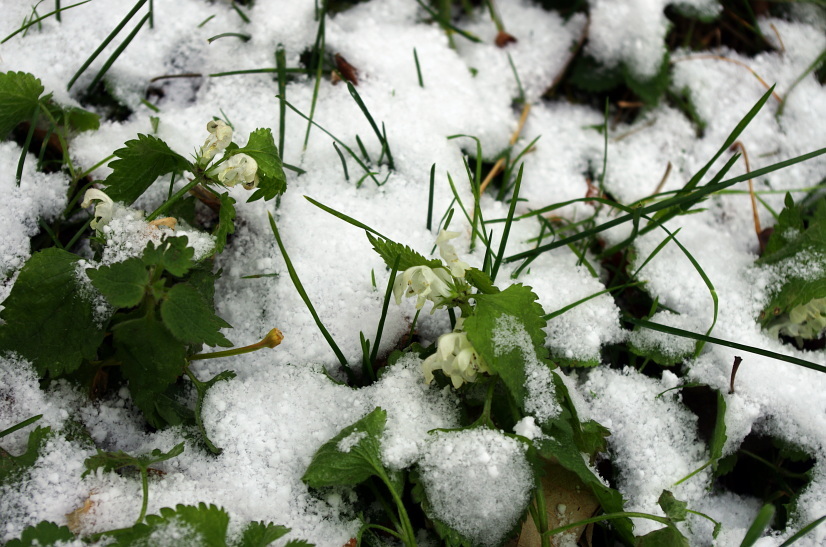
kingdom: Plantae
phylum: Tracheophyta
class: Magnoliopsida
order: Lamiales
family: Lamiaceae
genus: Lamium
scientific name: Lamium album
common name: White dead-nettle
